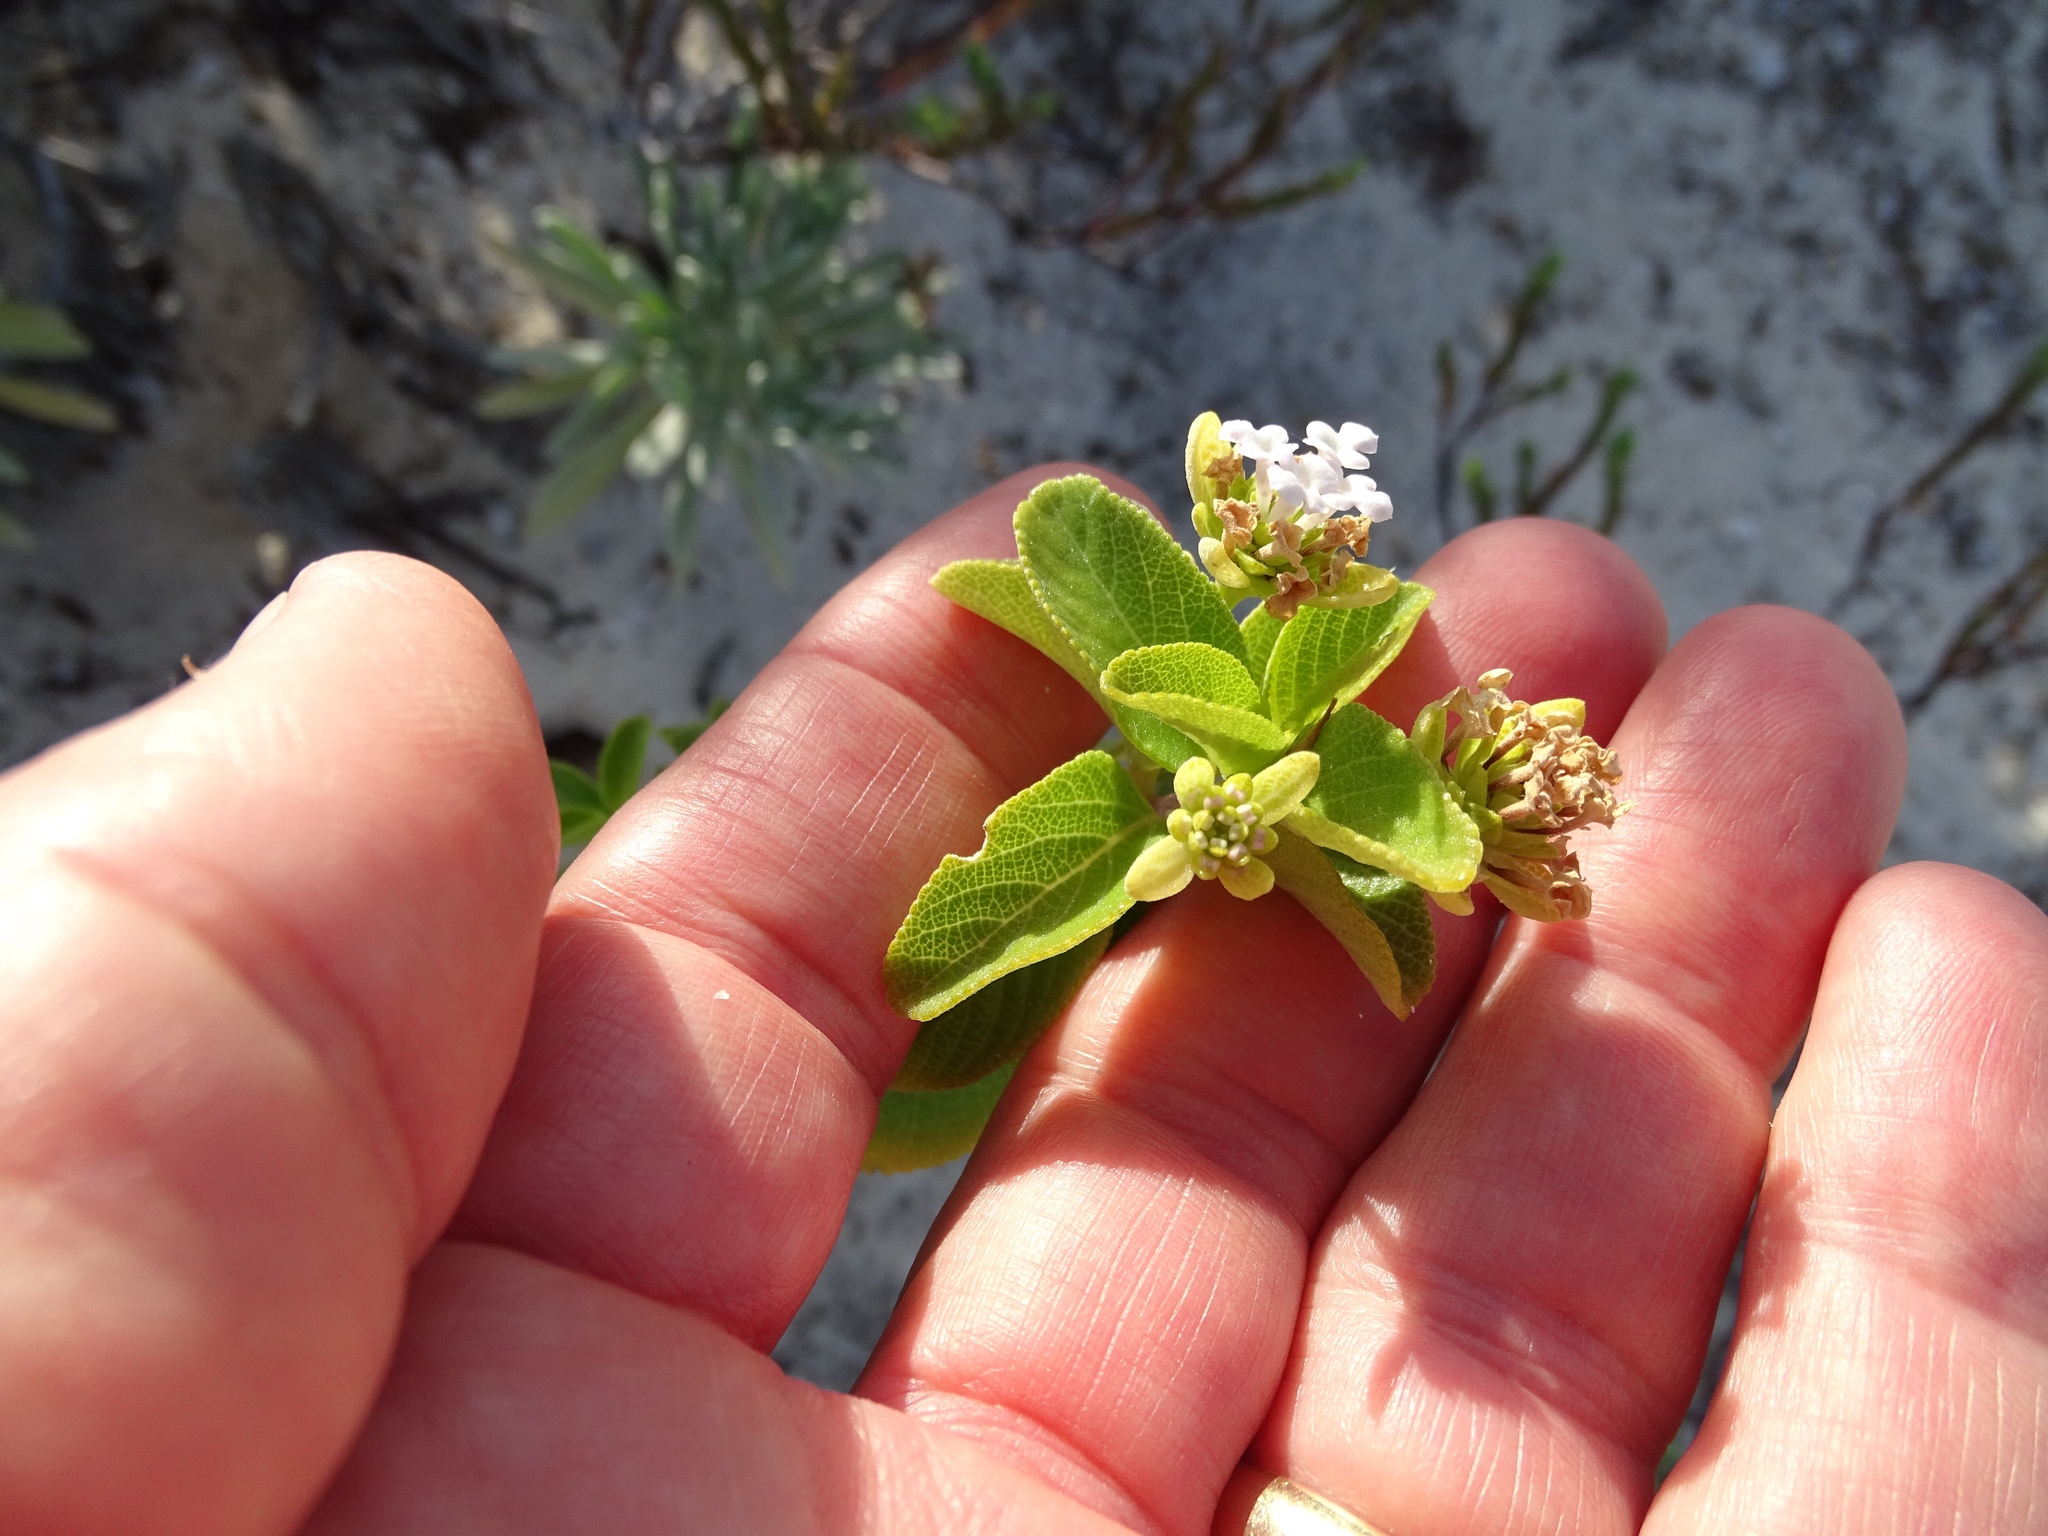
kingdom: Plantae
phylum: Tracheophyta
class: Magnoliopsida
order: Lamiales
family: Verbenaceae
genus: Lantana
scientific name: Lantana involucrata
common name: Black sage
